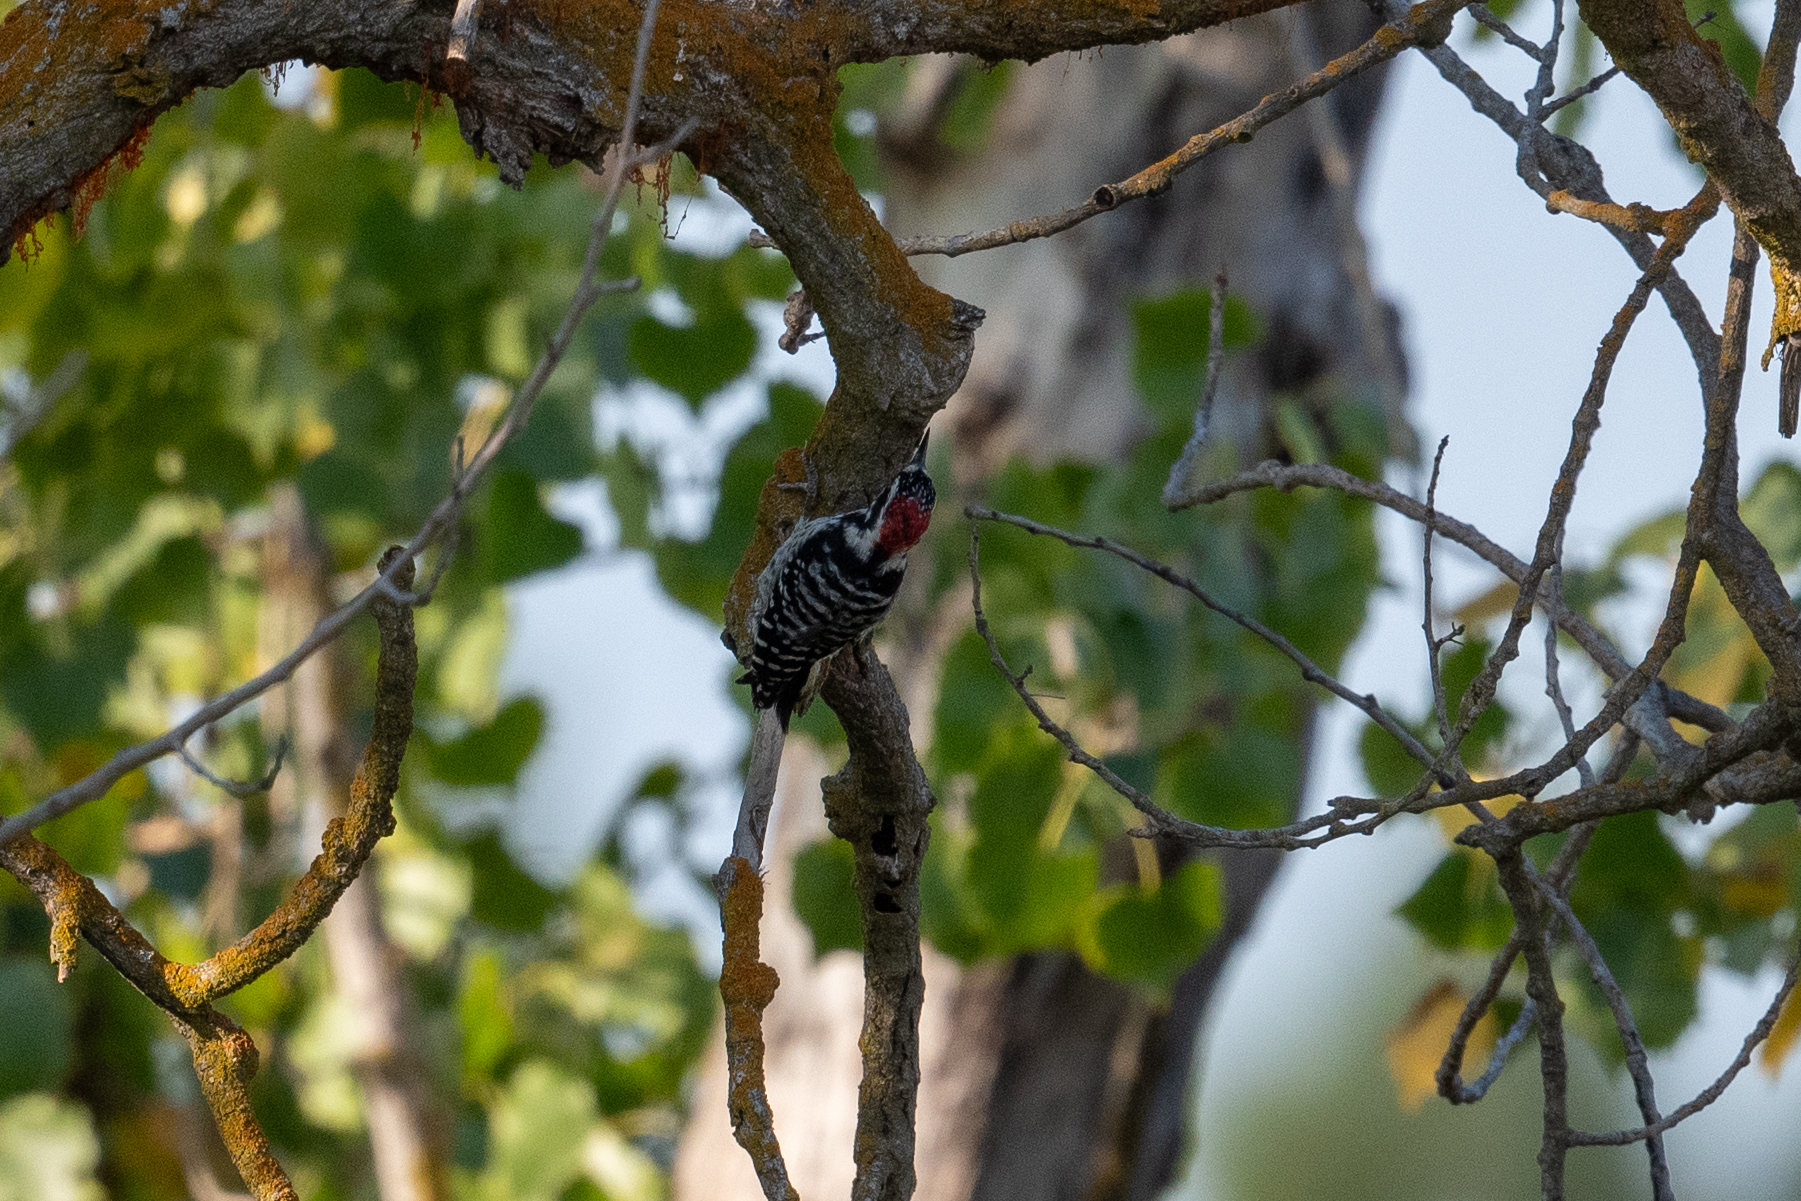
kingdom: Animalia
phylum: Chordata
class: Aves
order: Piciformes
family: Picidae
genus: Dryobates
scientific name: Dryobates nuttallii
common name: Nuttall's woodpecker
